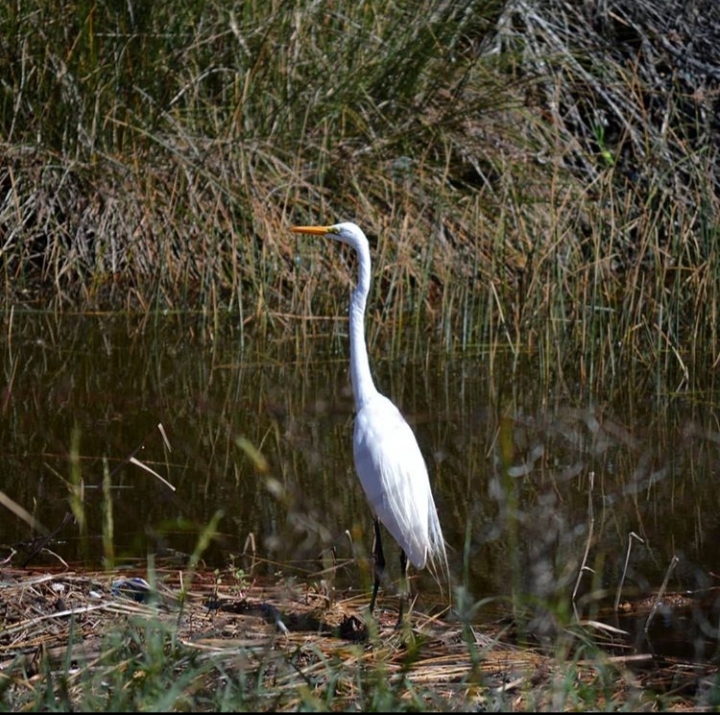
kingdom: Animalia
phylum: Chordata
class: Aves
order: Pelecaniformes
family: Ardeidae
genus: Ardea
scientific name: Ardea alba
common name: Great egret
